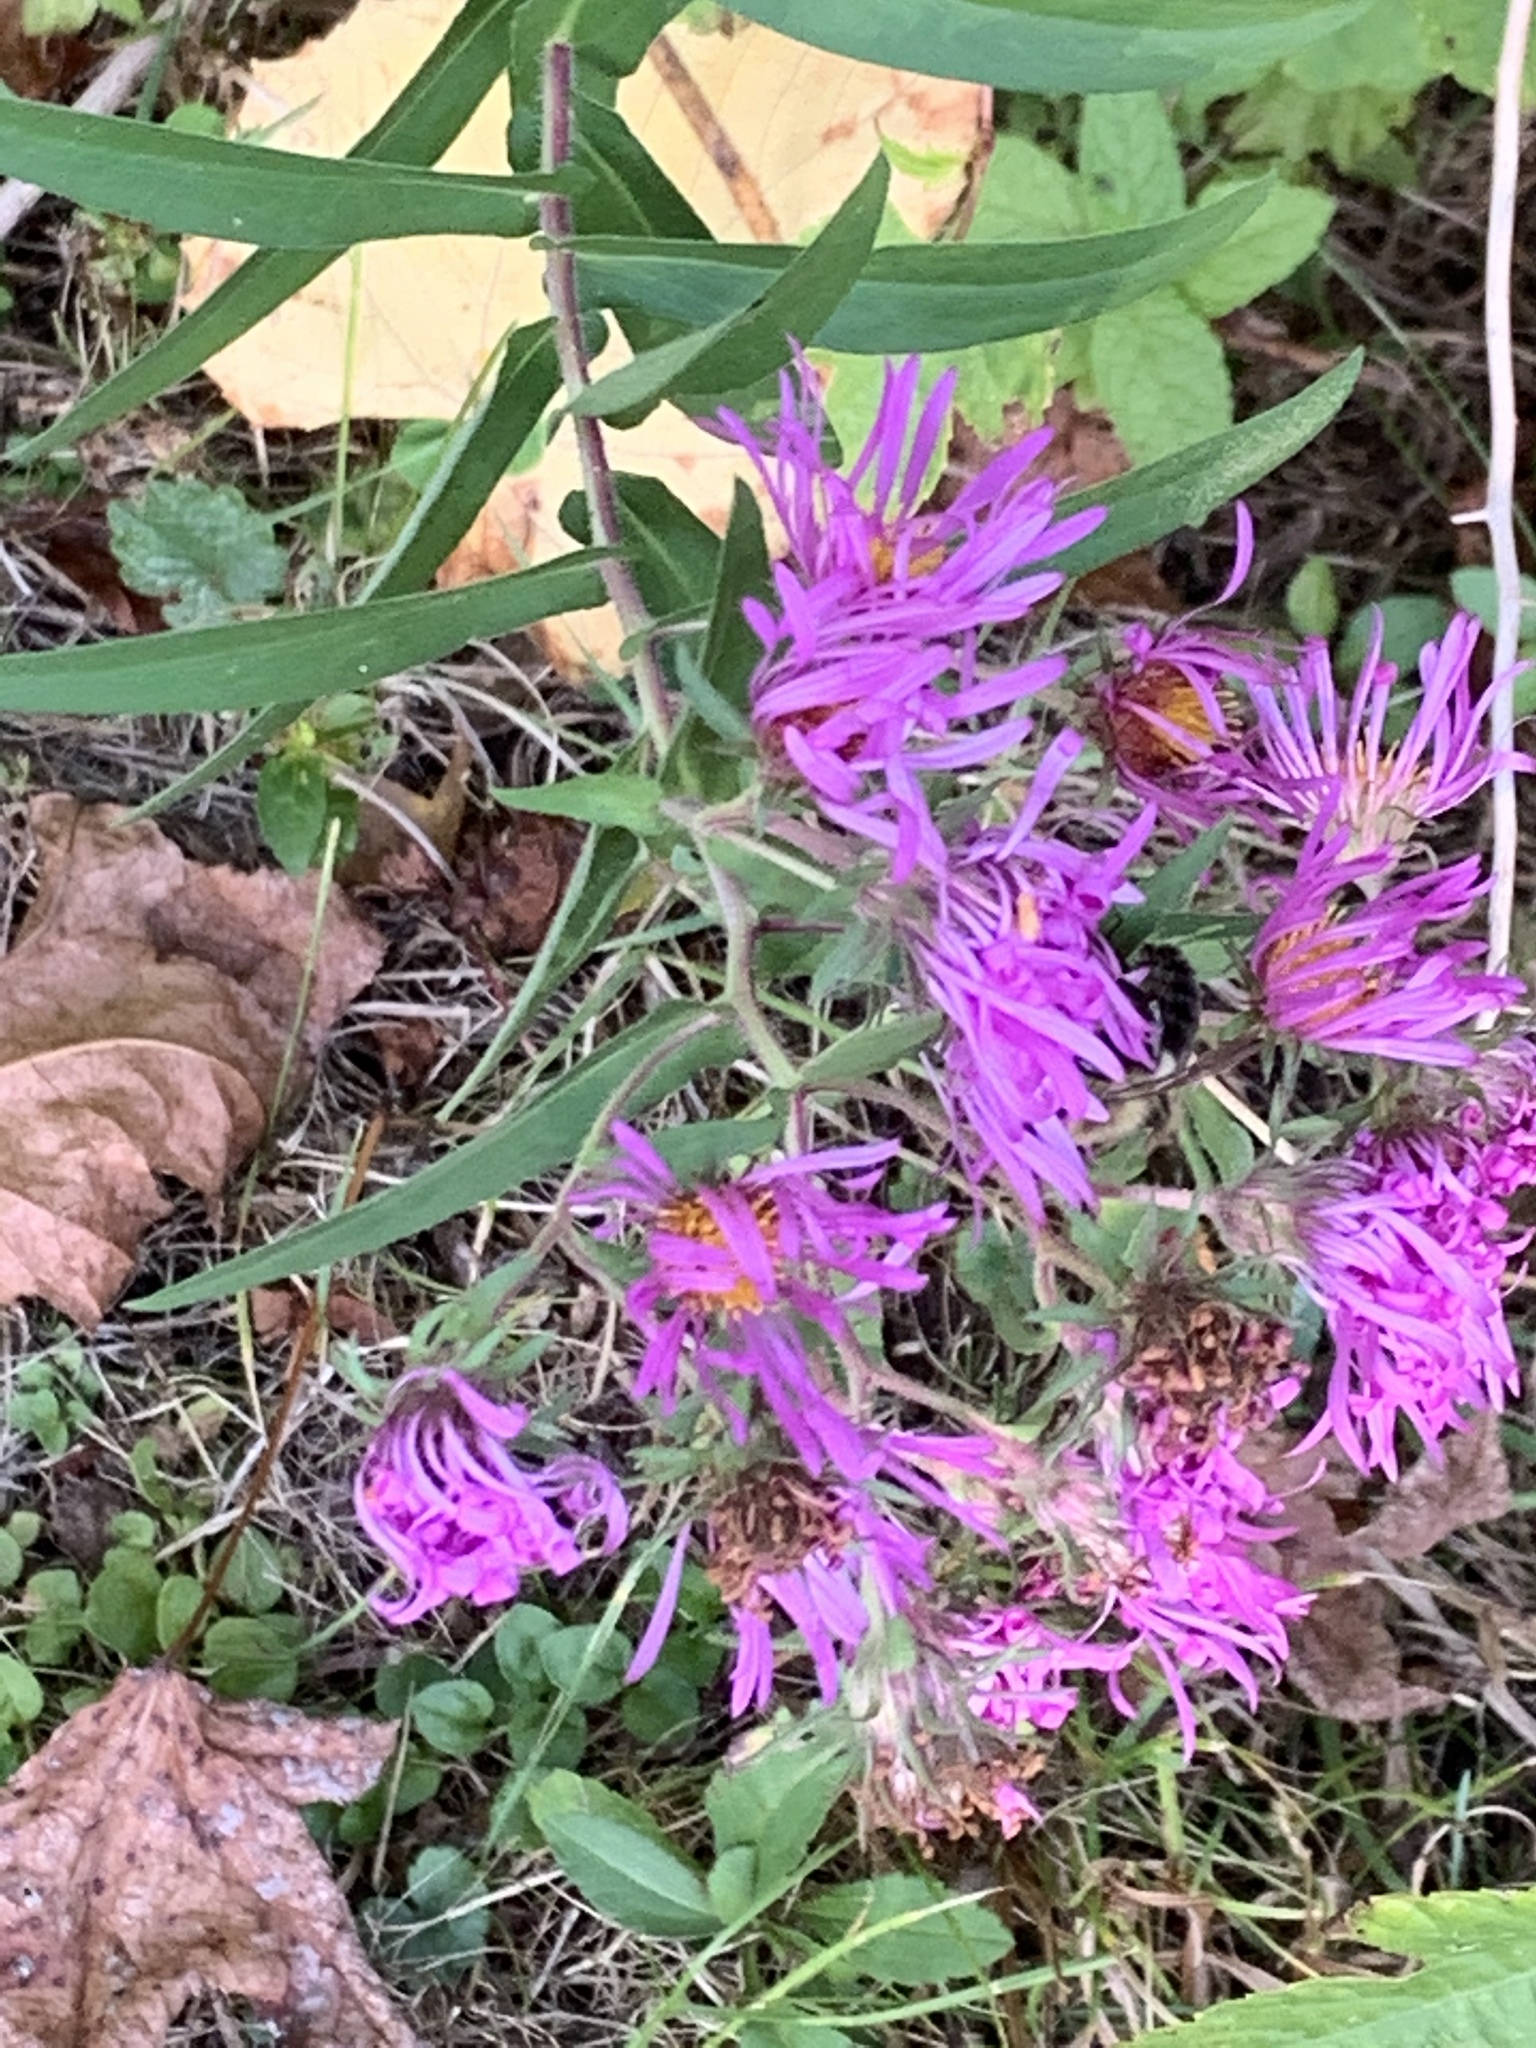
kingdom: Plantae
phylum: Tracheophyta
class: Magnoliopsida
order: Asterales
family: Asteraceae
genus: Symphyotrichum
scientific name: Symphyotrichum novae-angliae
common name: Michaelmas daisy
